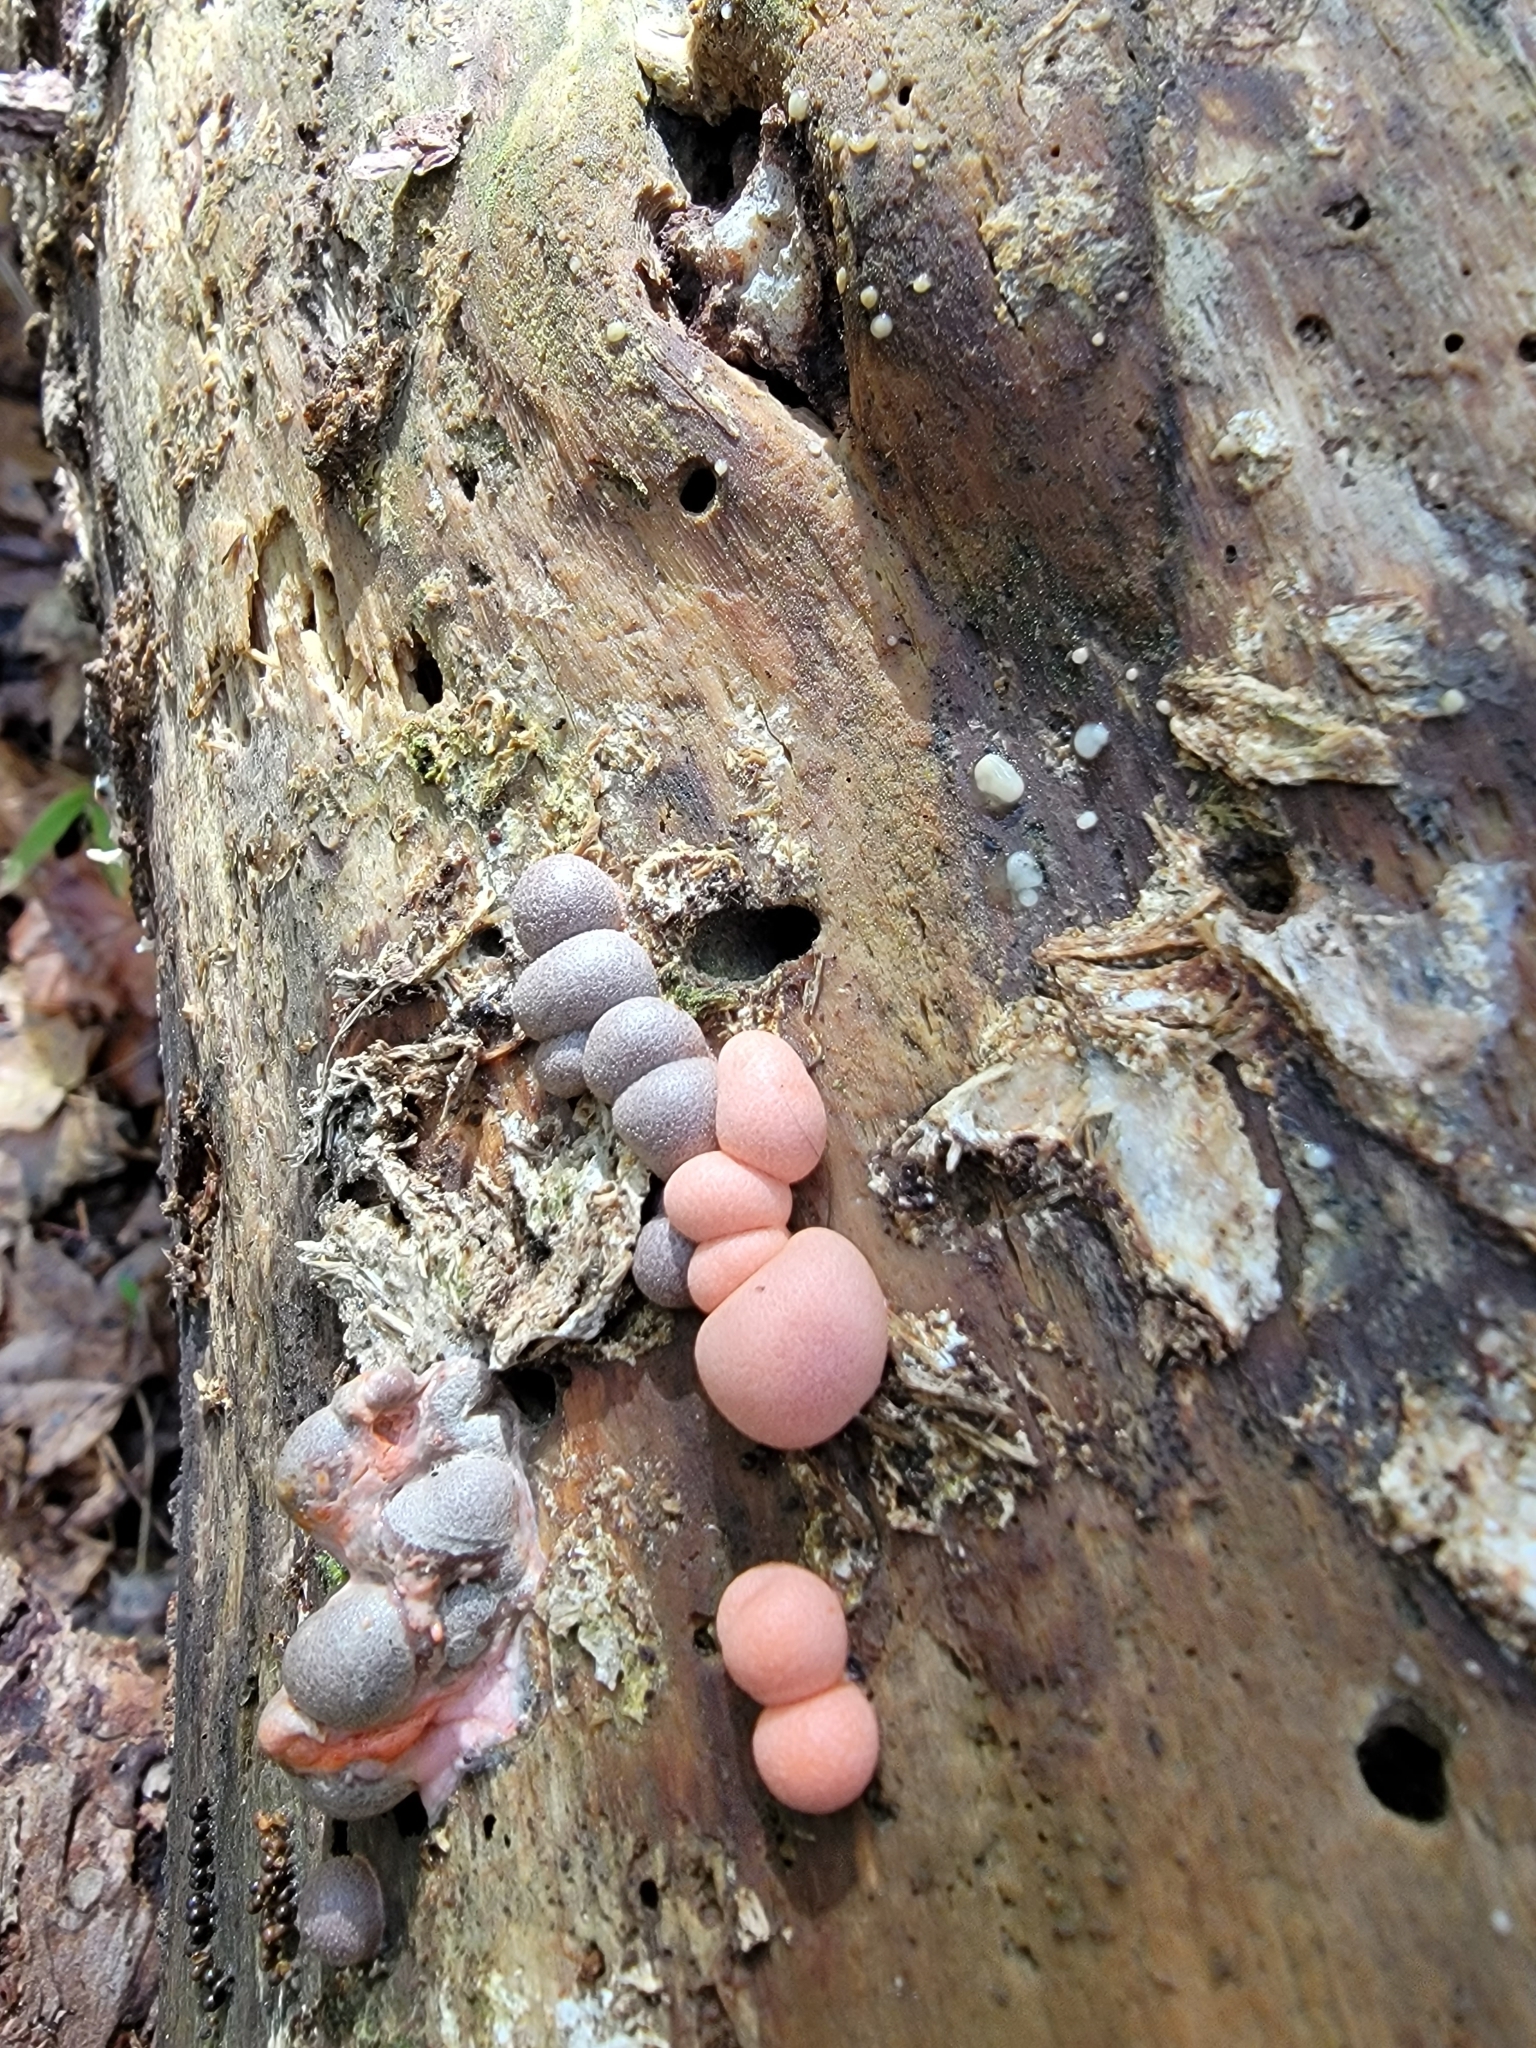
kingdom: Protozoa
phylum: Mycetozoa
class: Myxomycetes
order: Cribrariales
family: Tubiferaceae
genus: Lycogala
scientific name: Lycogala epidendrum
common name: Wolf's milk
